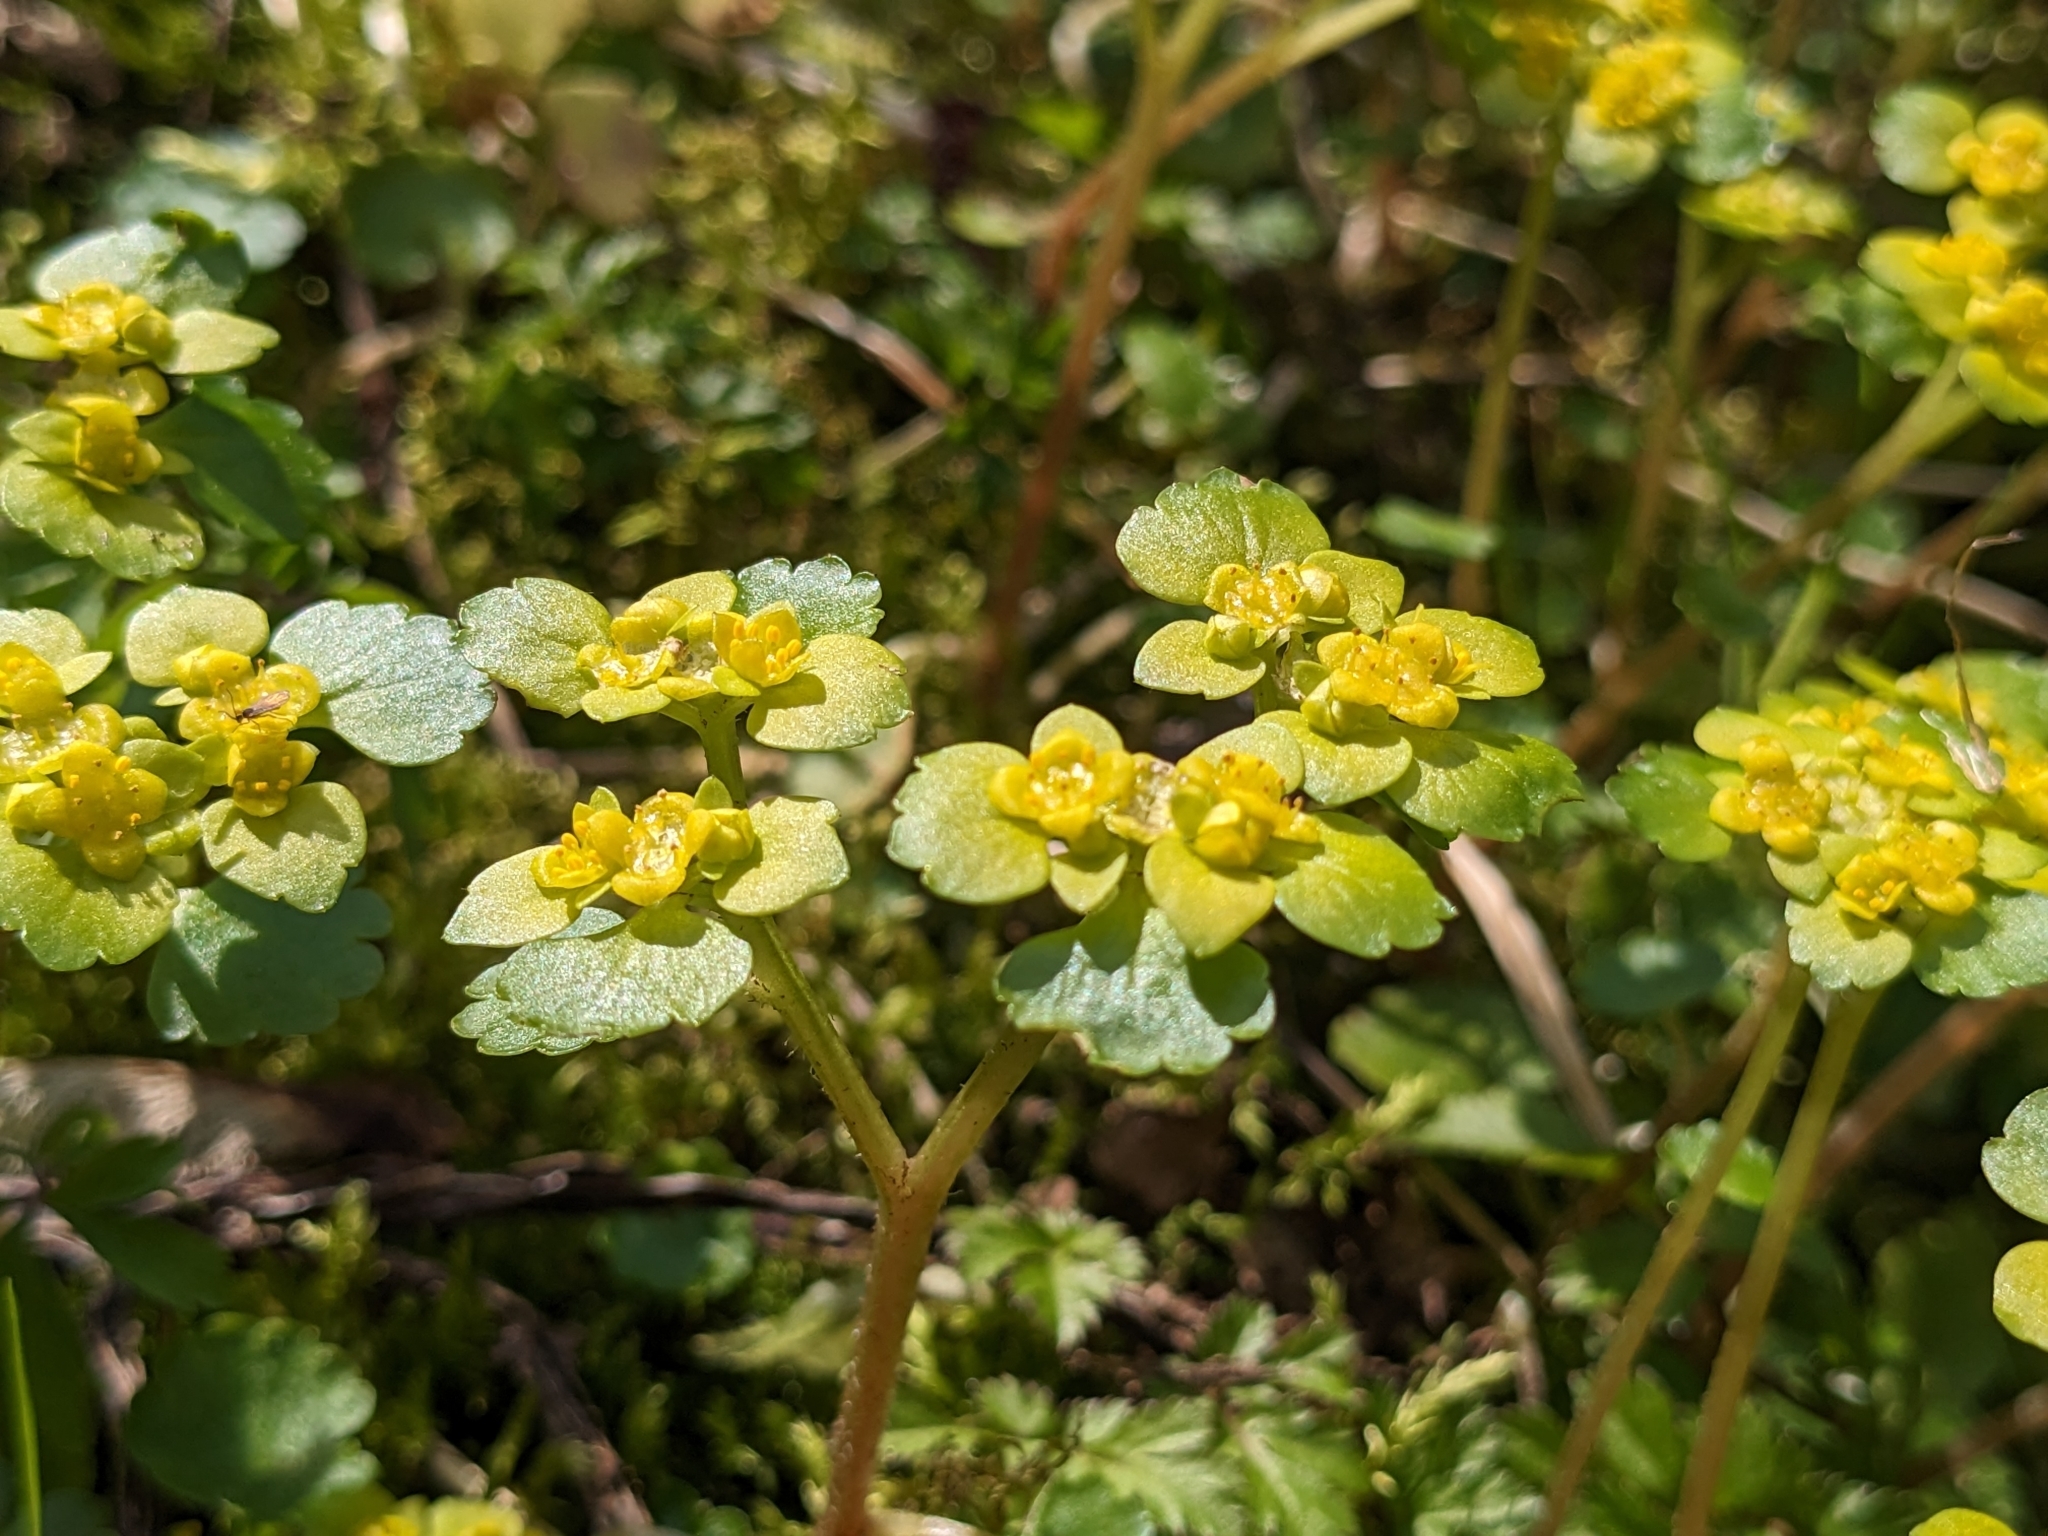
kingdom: Plantae
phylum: Tracheophyta
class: Magnoliopsida
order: Saxifragales
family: Saxifragaceae
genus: Chrysosplenium
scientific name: Chrysosplenium alternifolium
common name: Alternate-leaved golden-saxifrage
